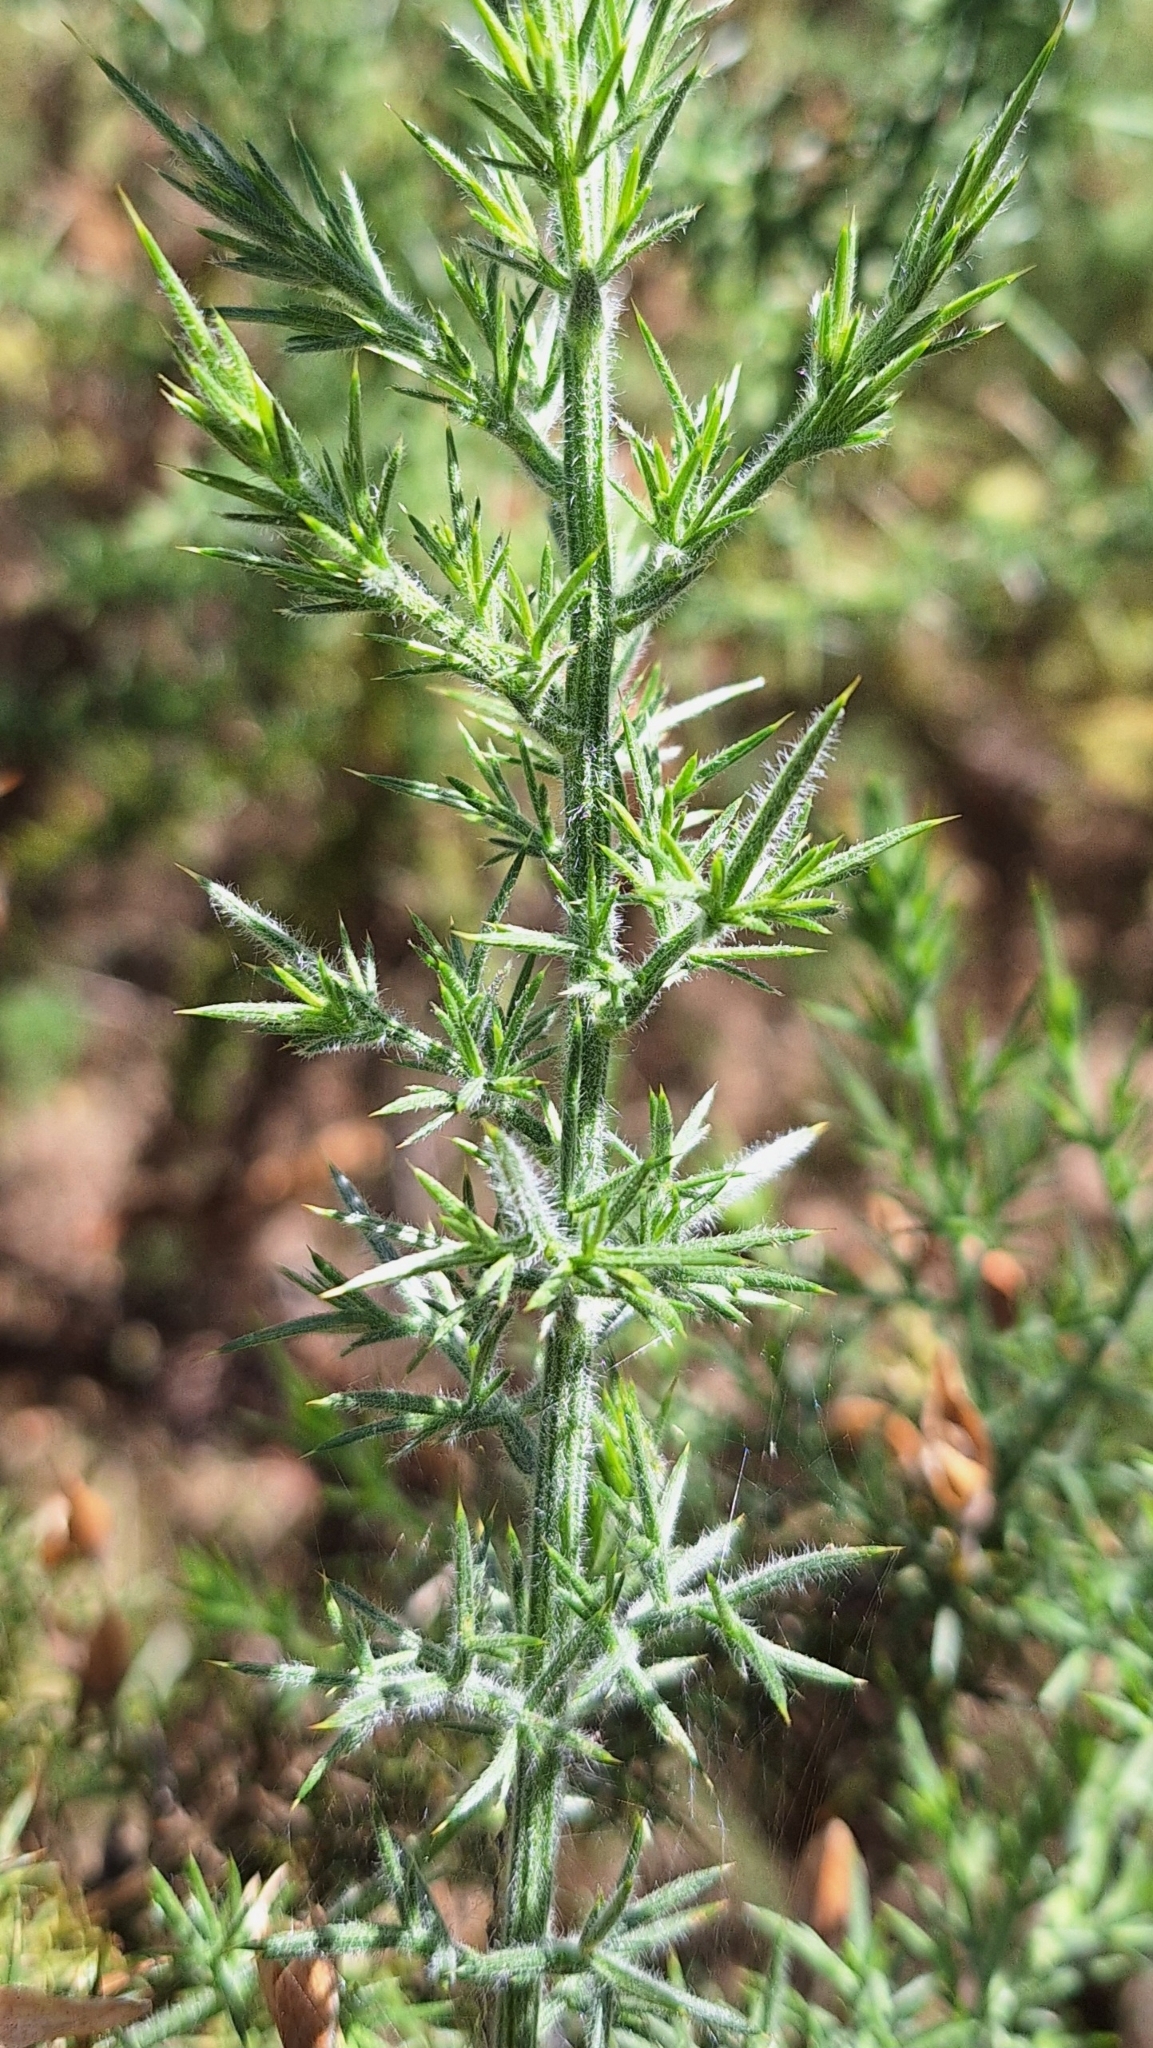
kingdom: Plantae
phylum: Tracheophyta
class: Magnoliopsida
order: Fabales
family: Fabaceae
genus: Ulex
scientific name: Ulex europaeus
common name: Common gorse
